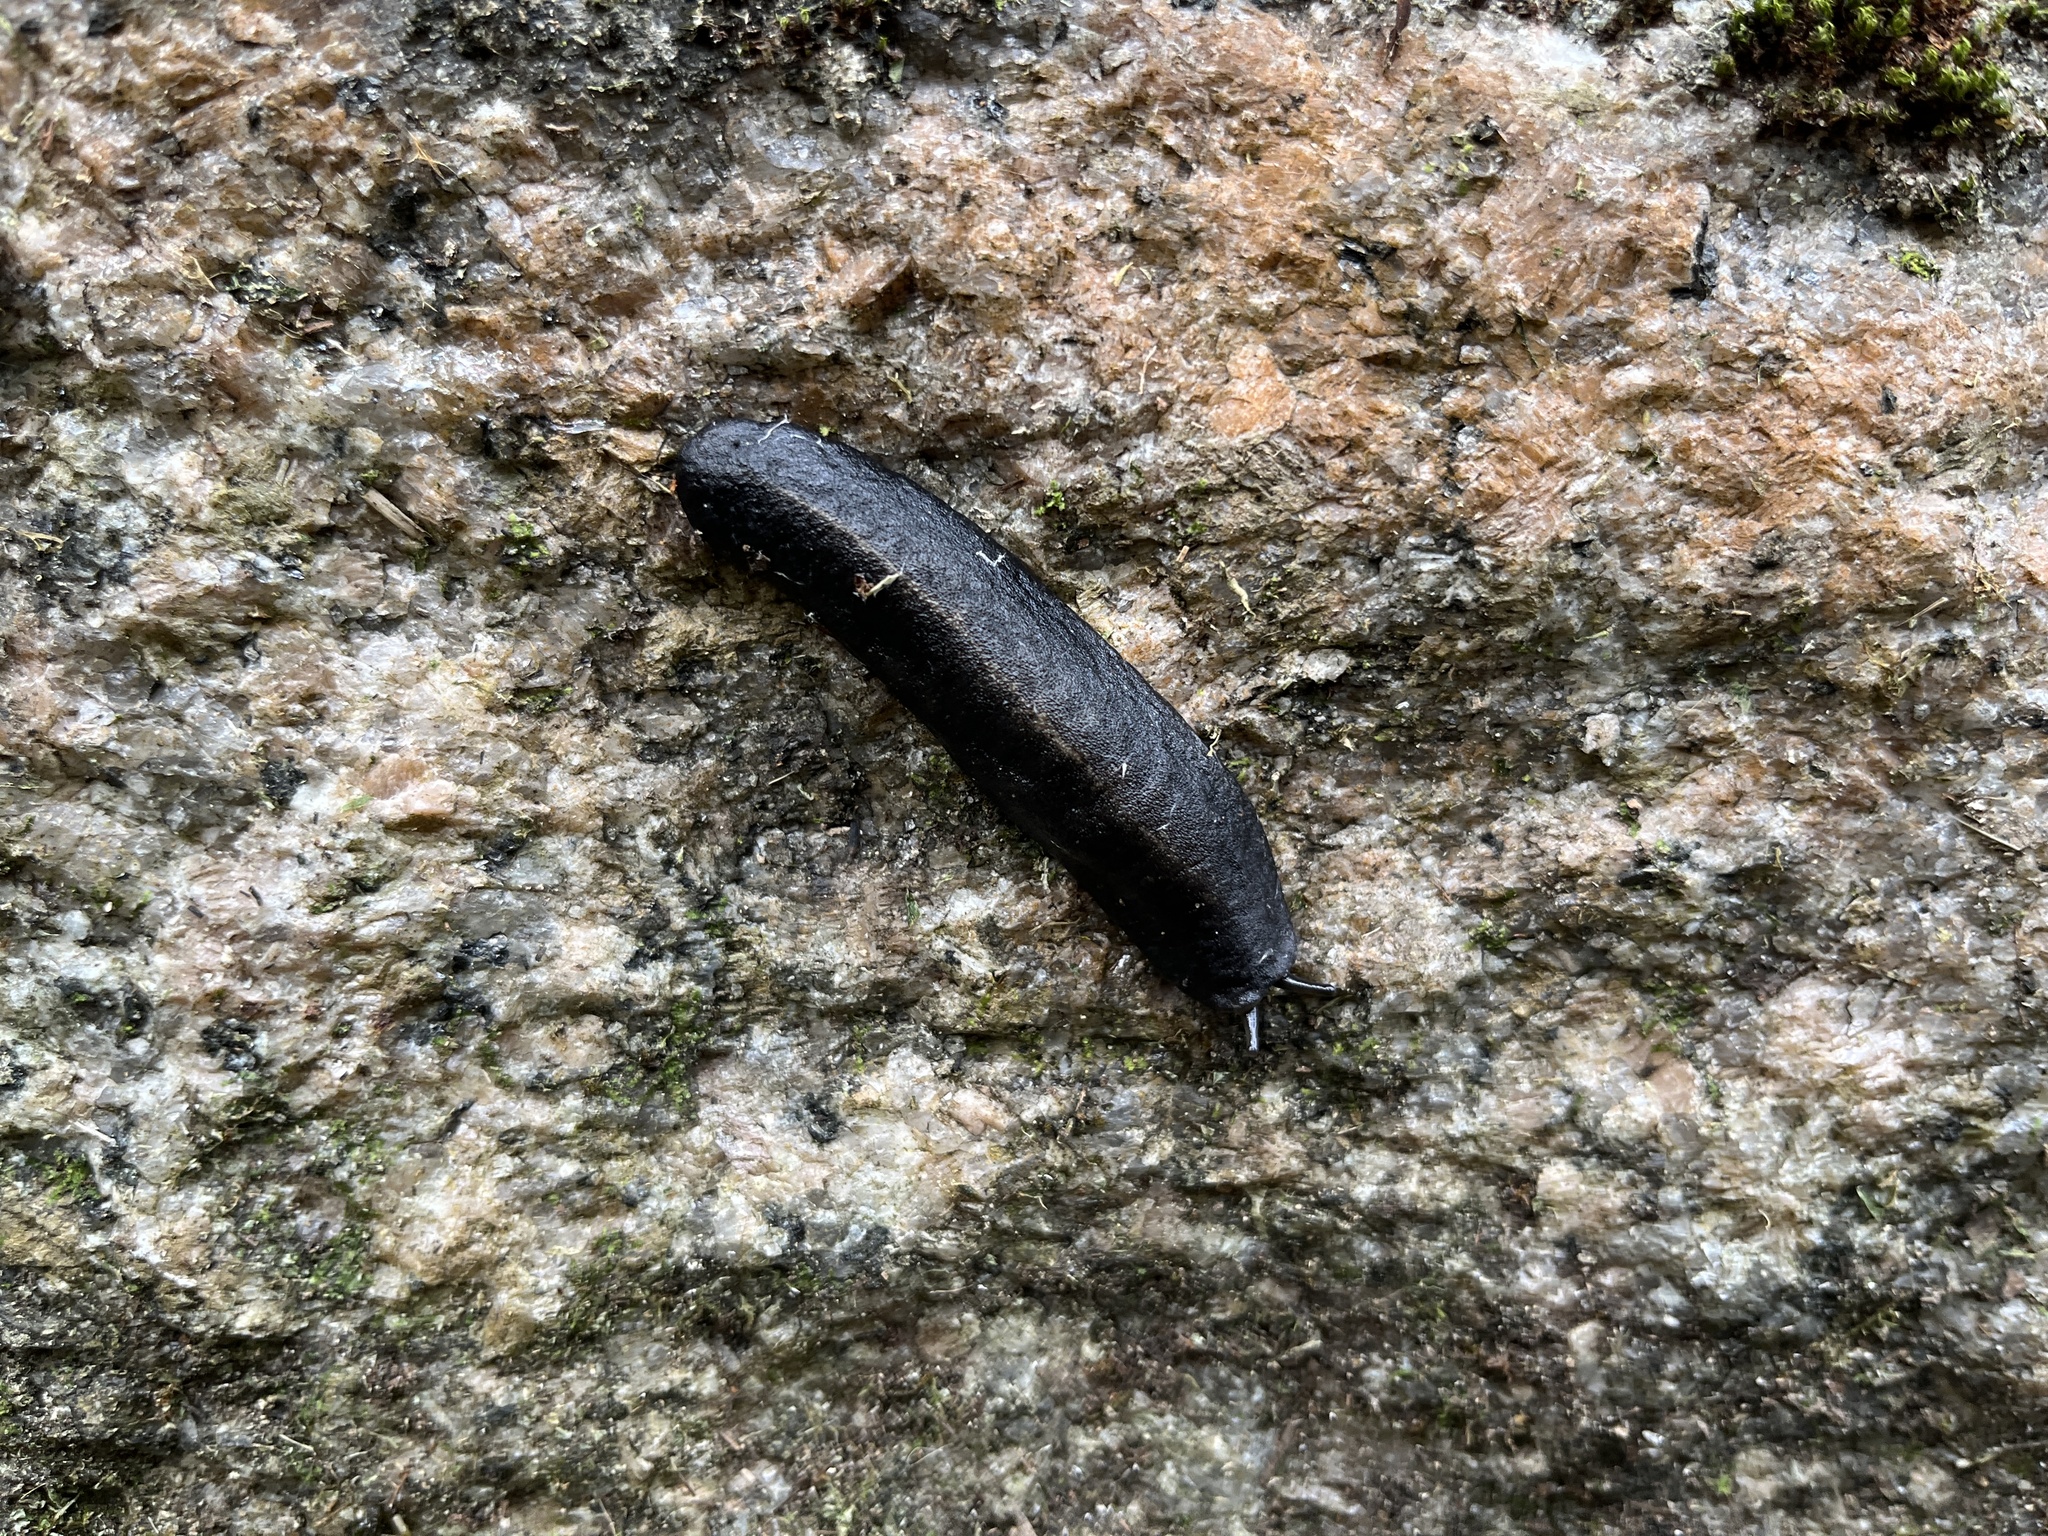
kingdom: Animalia
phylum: Mollusca
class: Gastropoda
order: Systellommatophora
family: Veronicellidae
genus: Laevicaulis
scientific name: Laevicaulis alte
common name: Tropical leatherleaf
